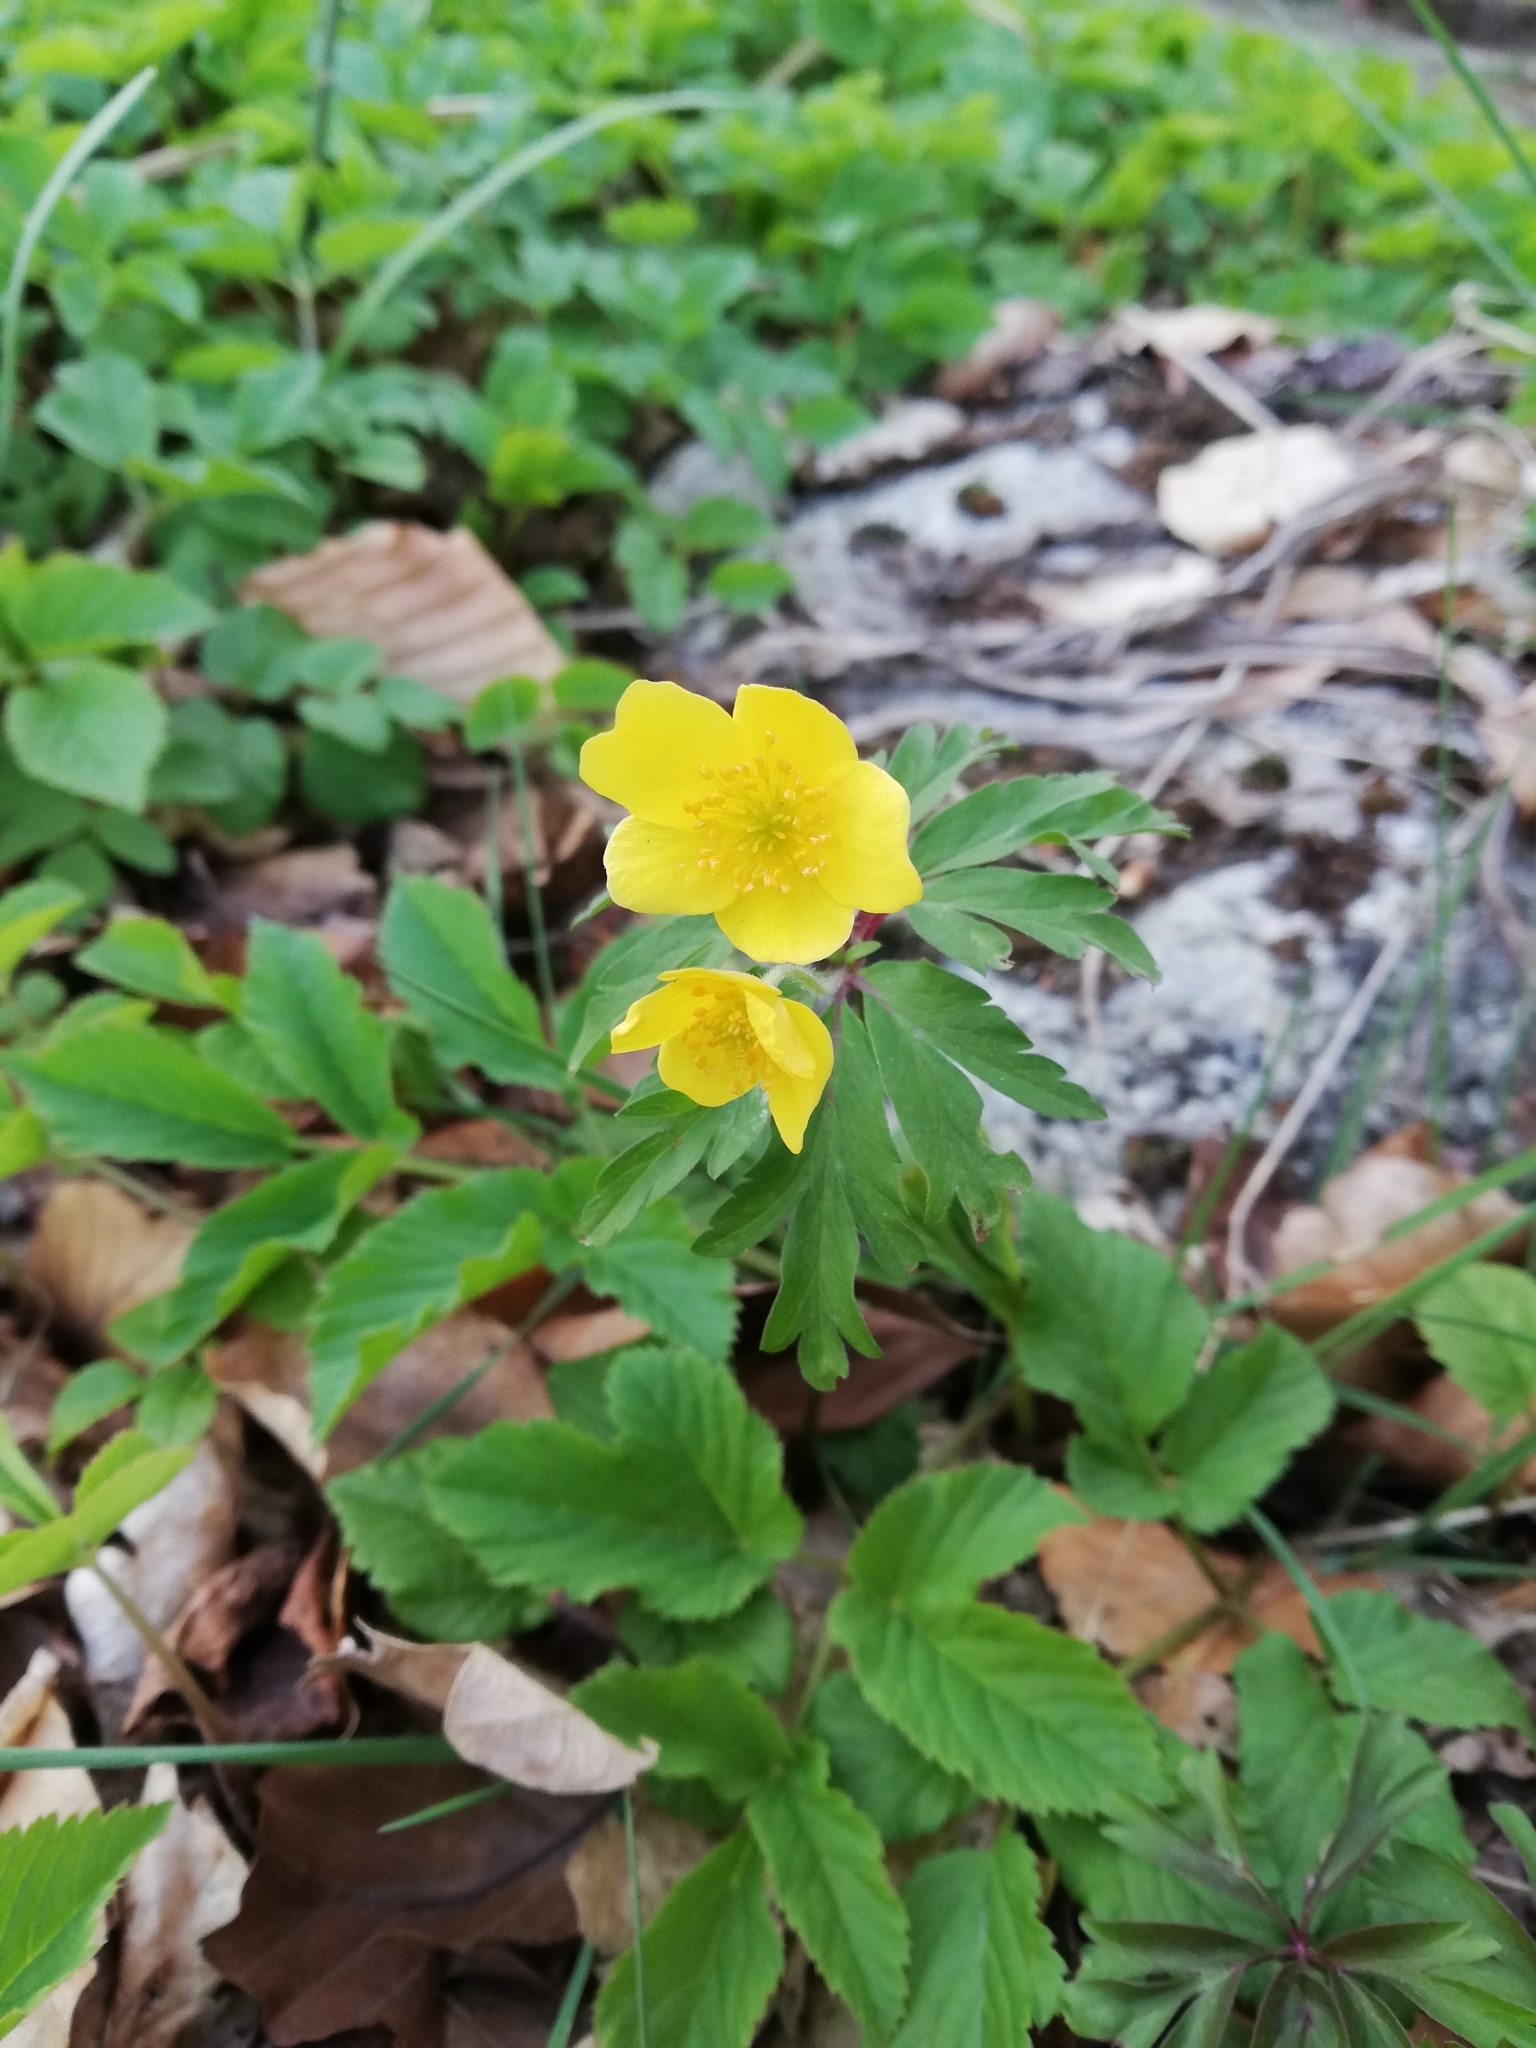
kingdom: Plantae
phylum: Tracheophyta
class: Magnoliopsida
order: Ranunculales
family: Ranunculaceae
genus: Anemone
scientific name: Anemone ranunculoides
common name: Yellow anemone
